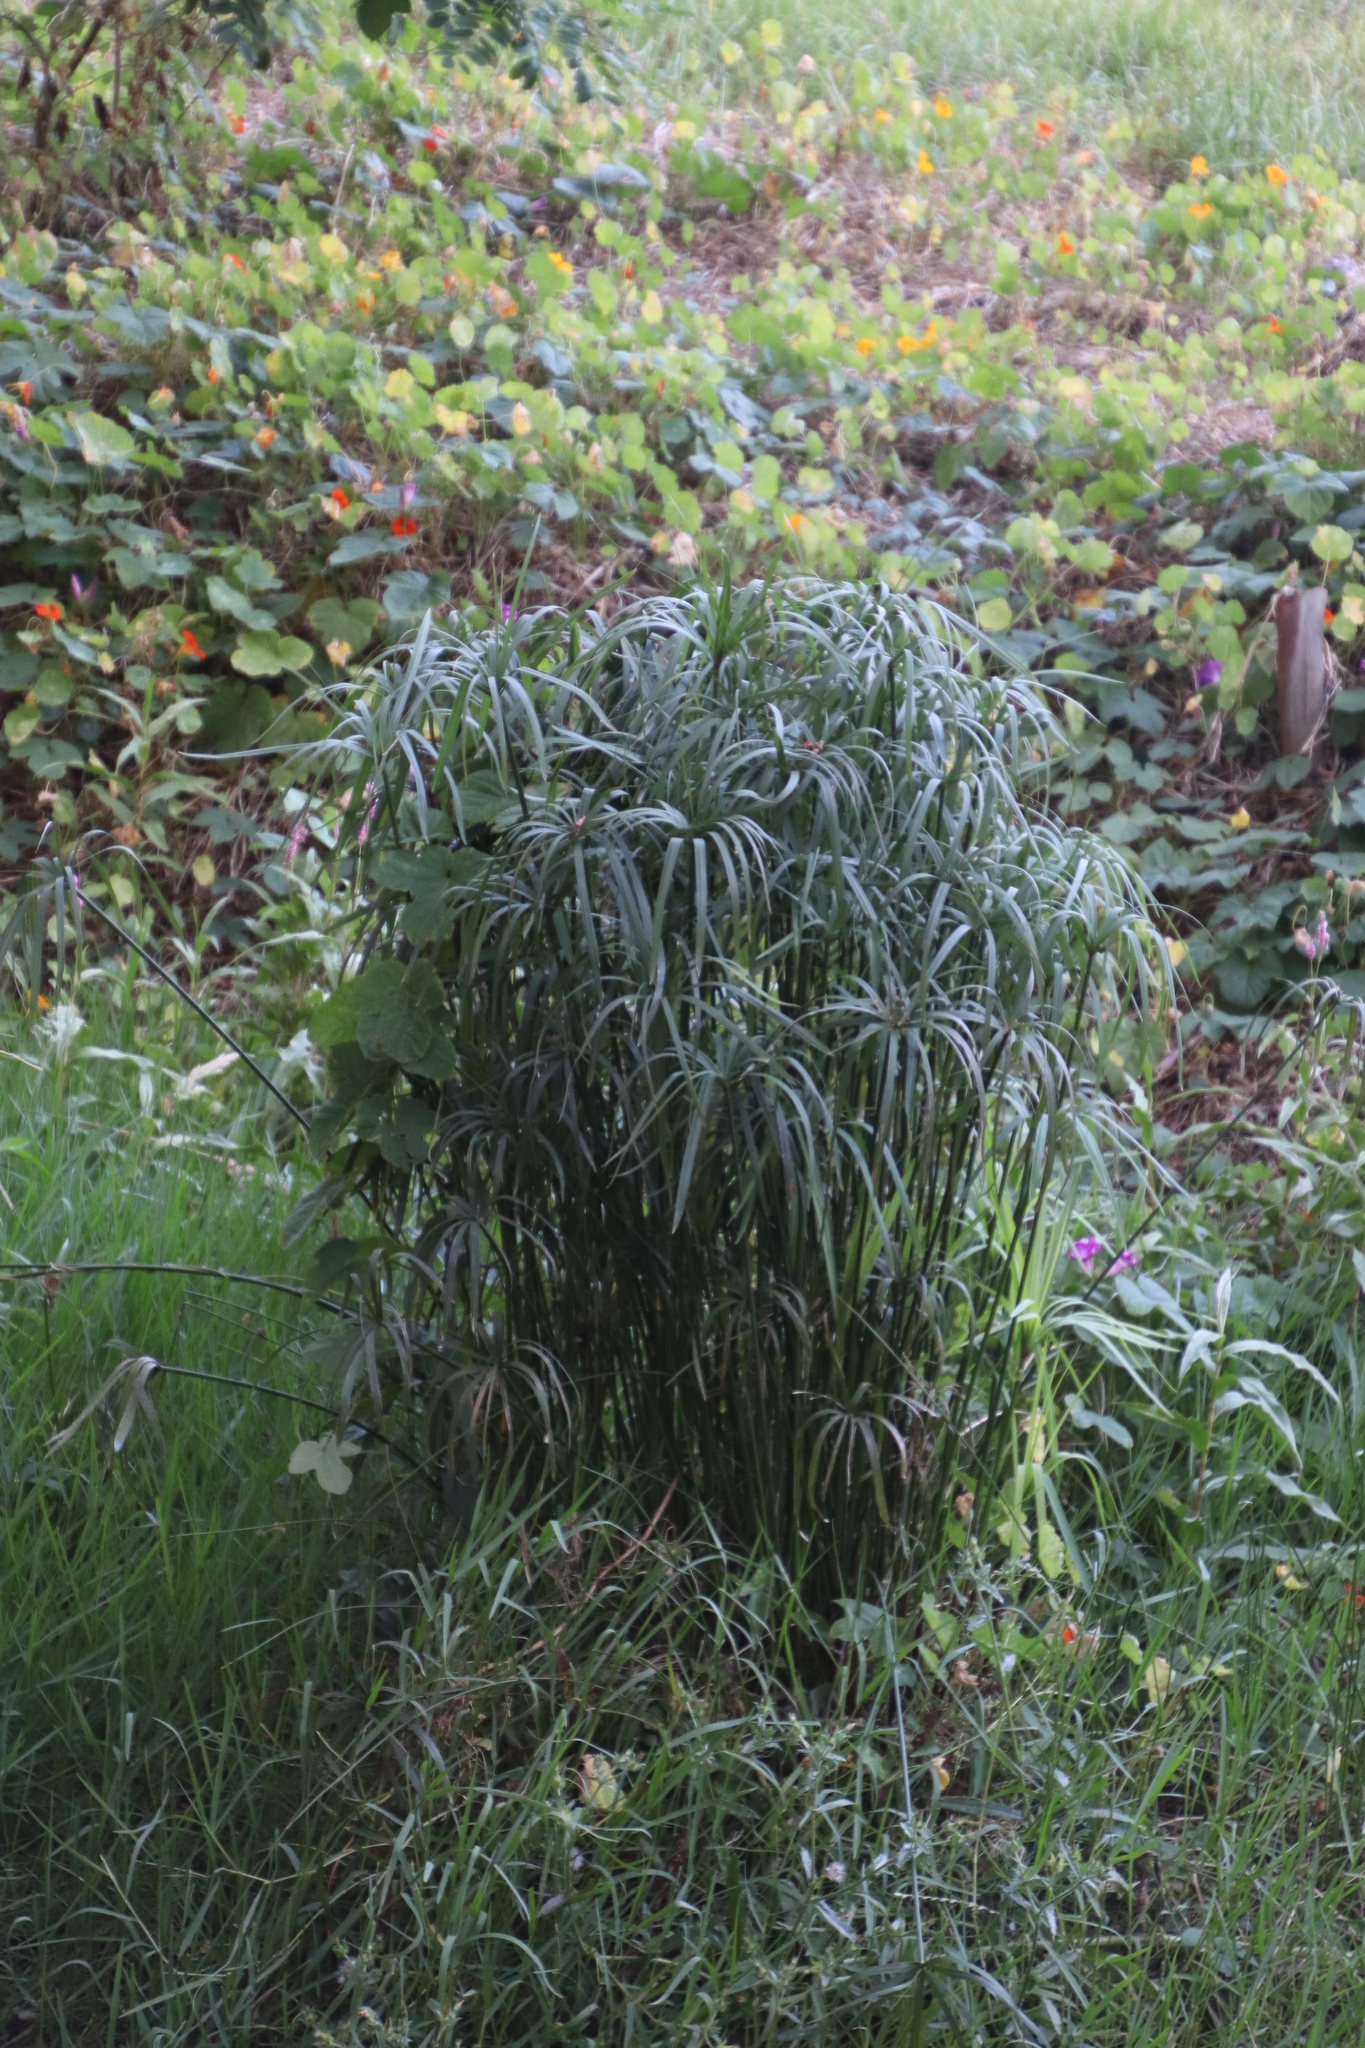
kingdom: Plantae
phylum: Tracheophyta
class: Liliopsida
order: Poales
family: Cyperaceae
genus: Cyperus
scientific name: Cyperus textilis
